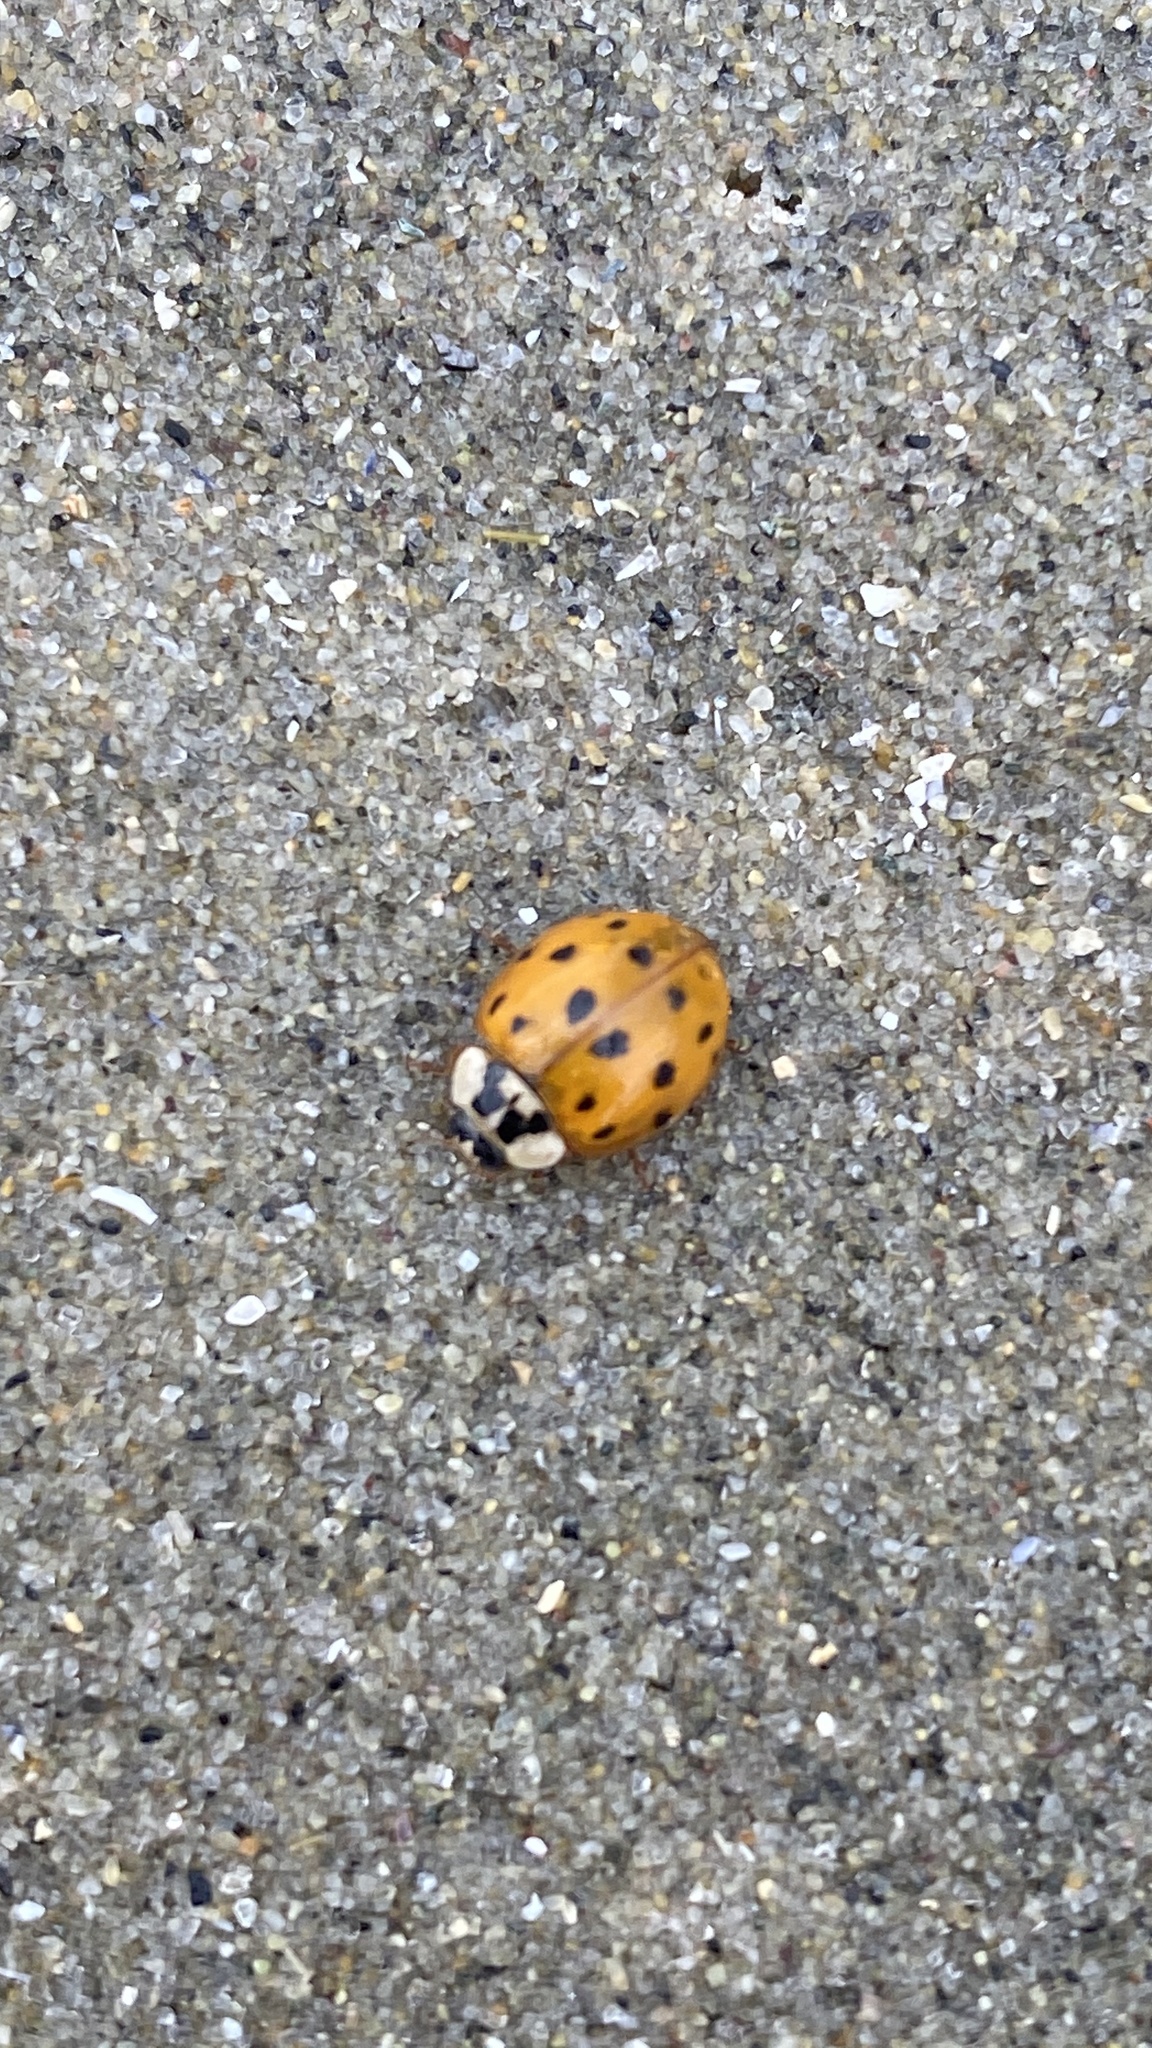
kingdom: Animalia
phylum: Arthropoda
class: Insecta
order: Coleoptera
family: Coccinellidae
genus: Harmonia
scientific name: Harmonia axyridis
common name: Harlequin ladybird
